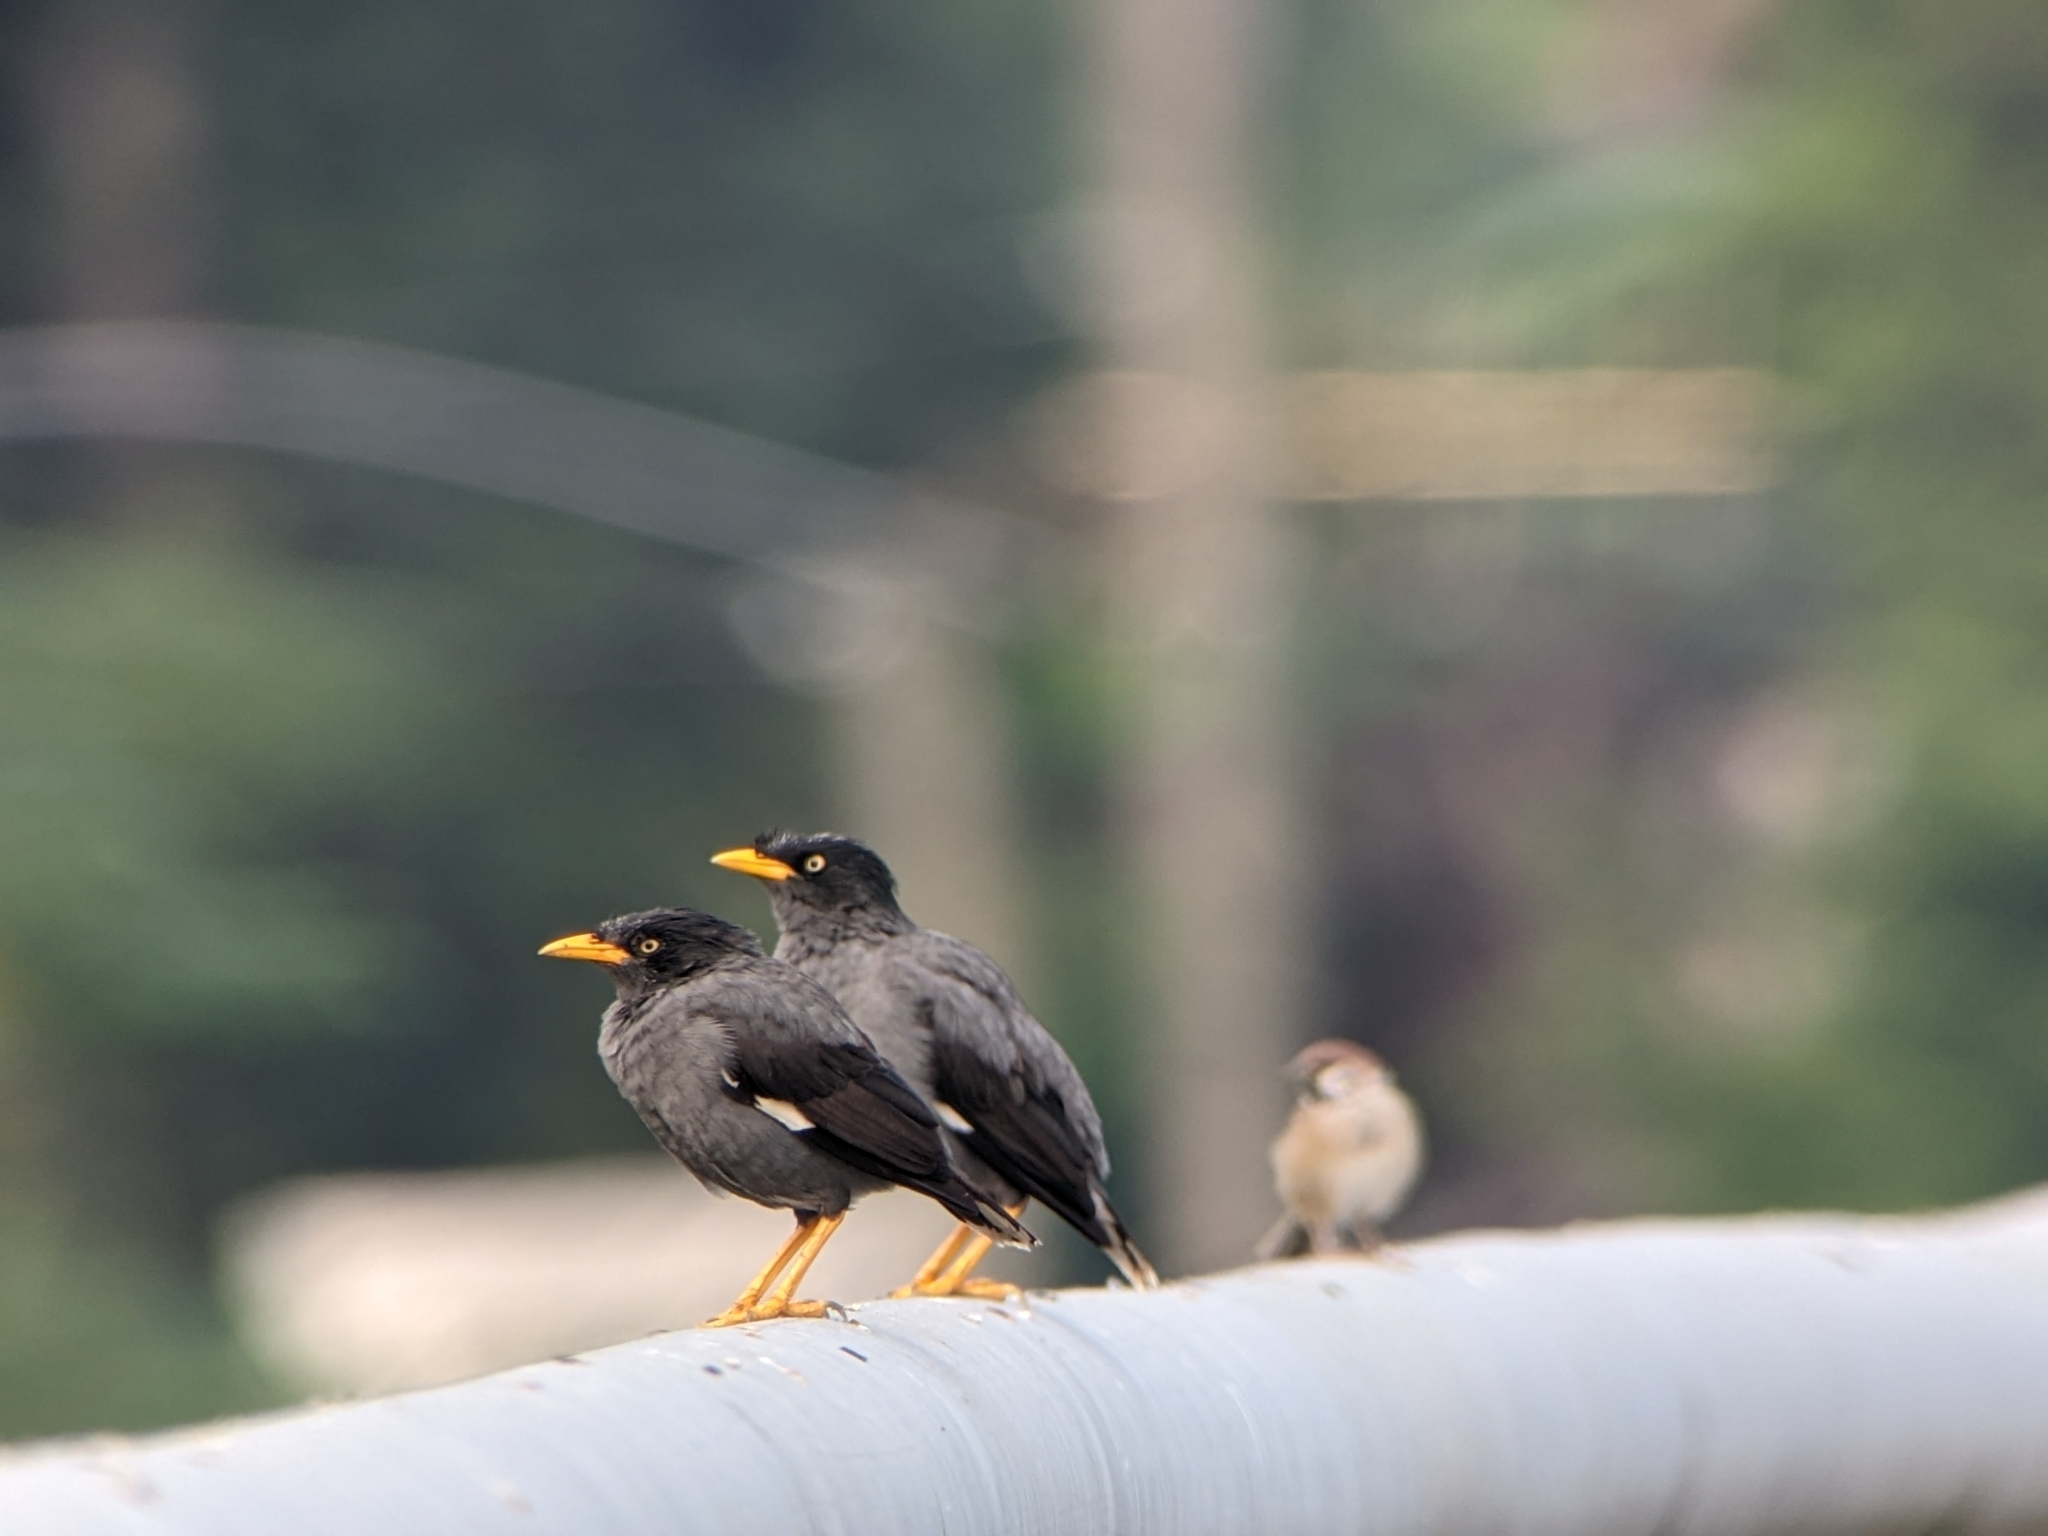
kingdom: Animalia
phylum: Chordata
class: Aves
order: Passeriformes
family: Sturnidae
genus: Acridotheres
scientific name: Acridotheres javanicus
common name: Javan myna
